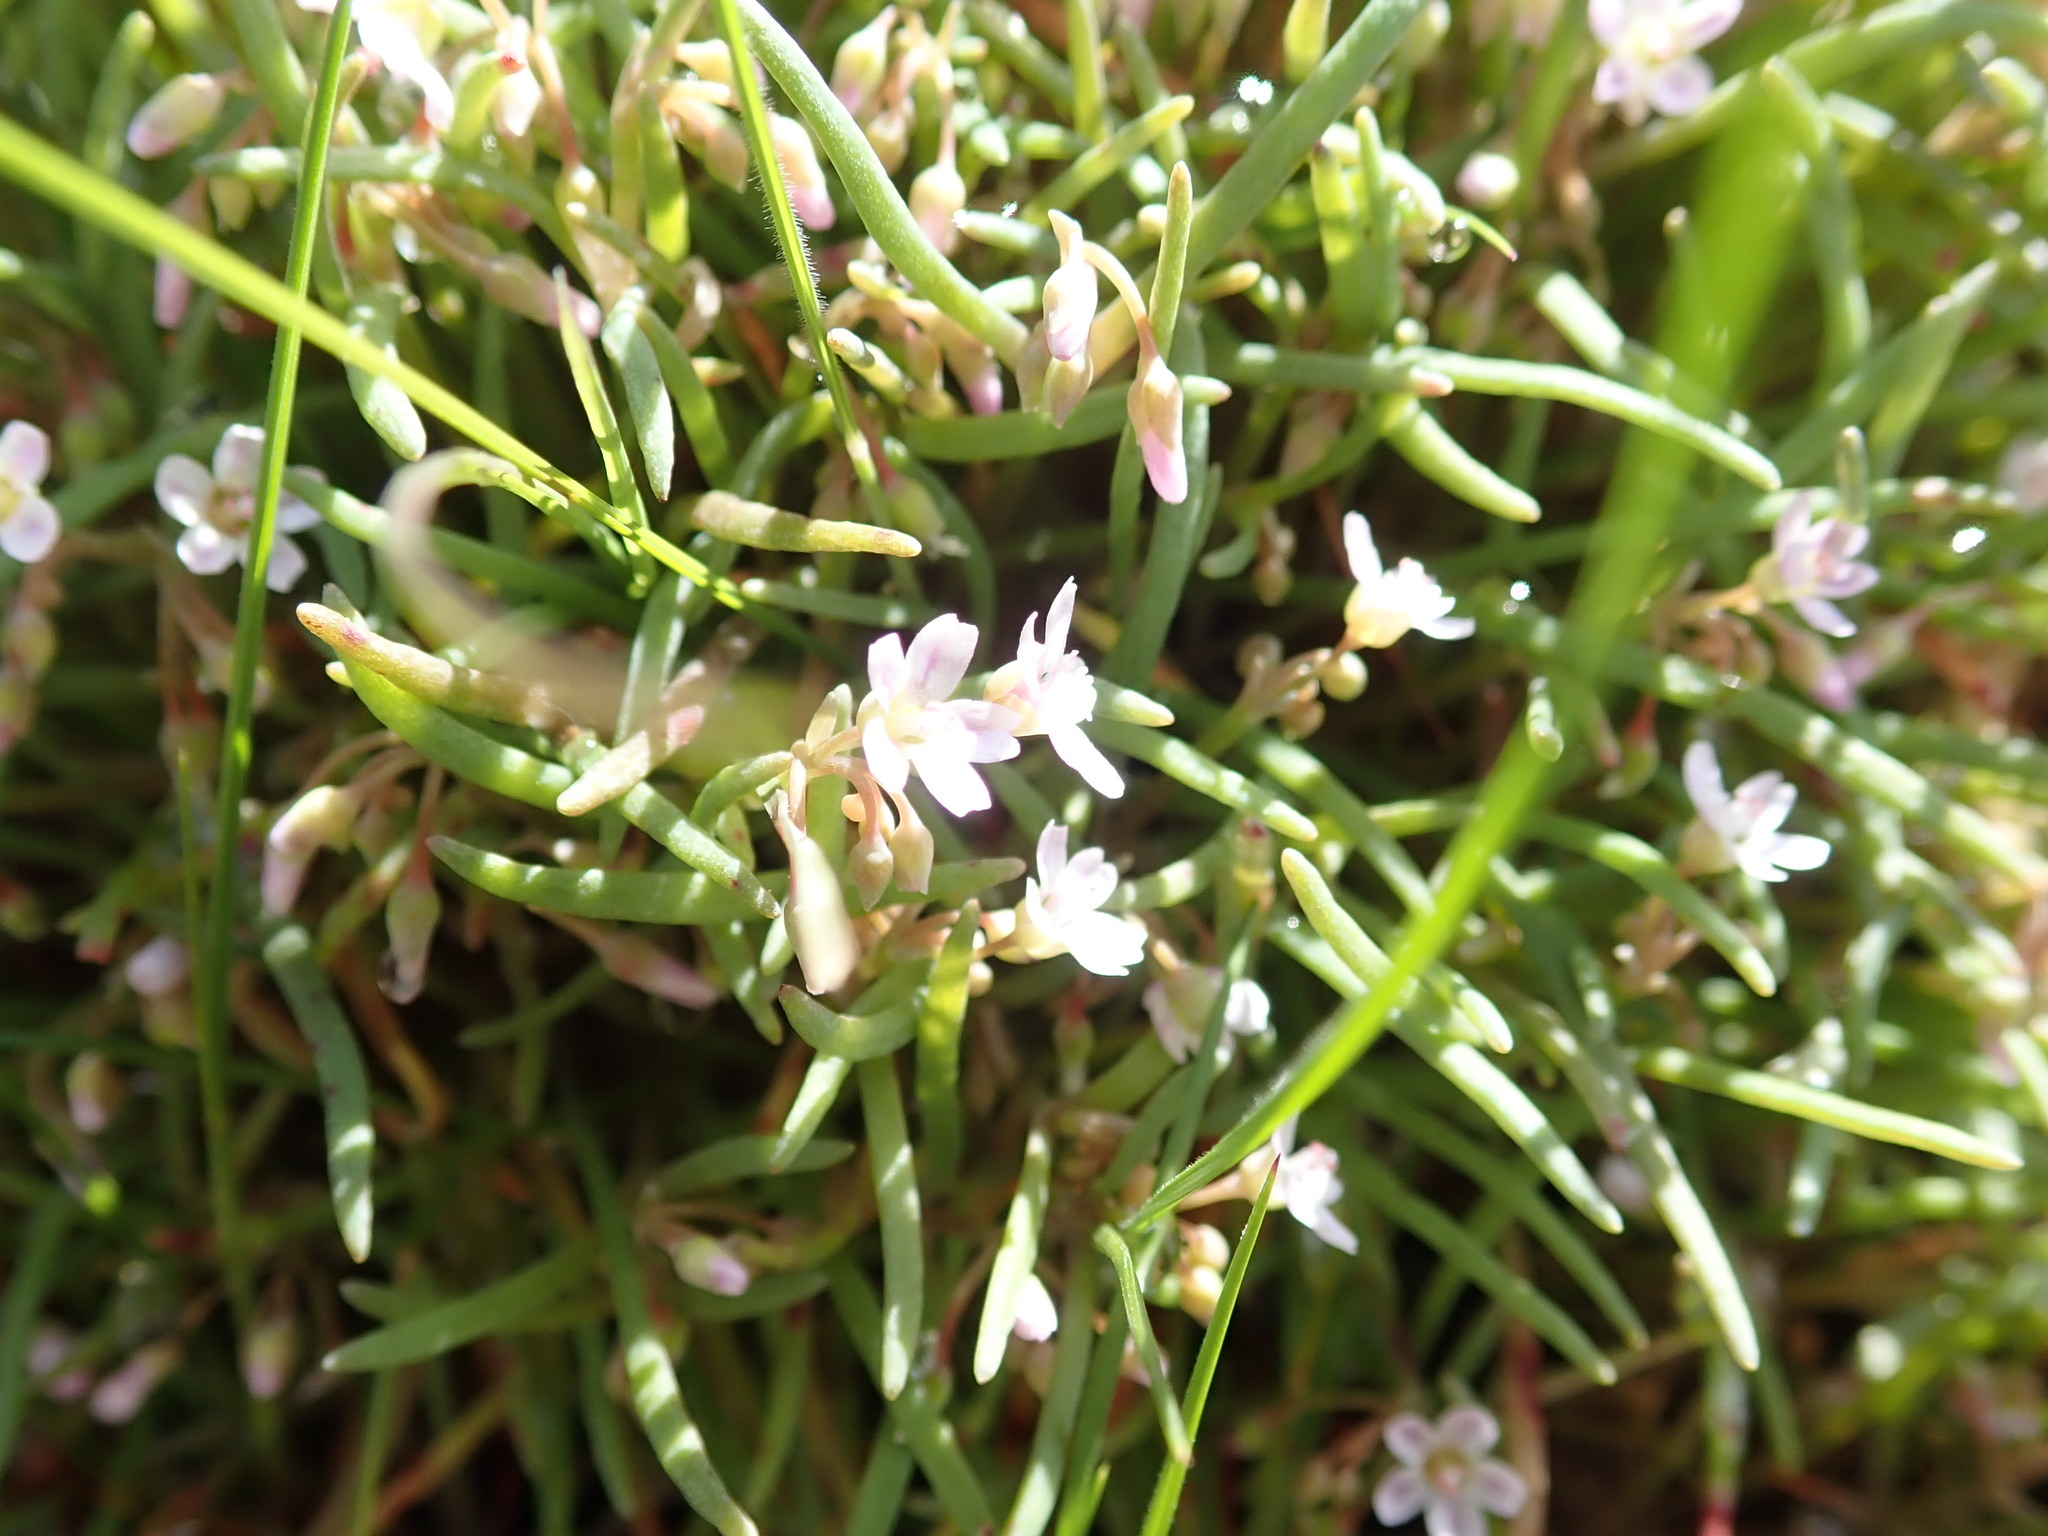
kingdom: Plantae
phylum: Tracheophyta
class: Magnoliopsida
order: Caryophyllales
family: Montiaceae
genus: Claytonia
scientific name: Claytonia exigua
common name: Pale spring beauty
